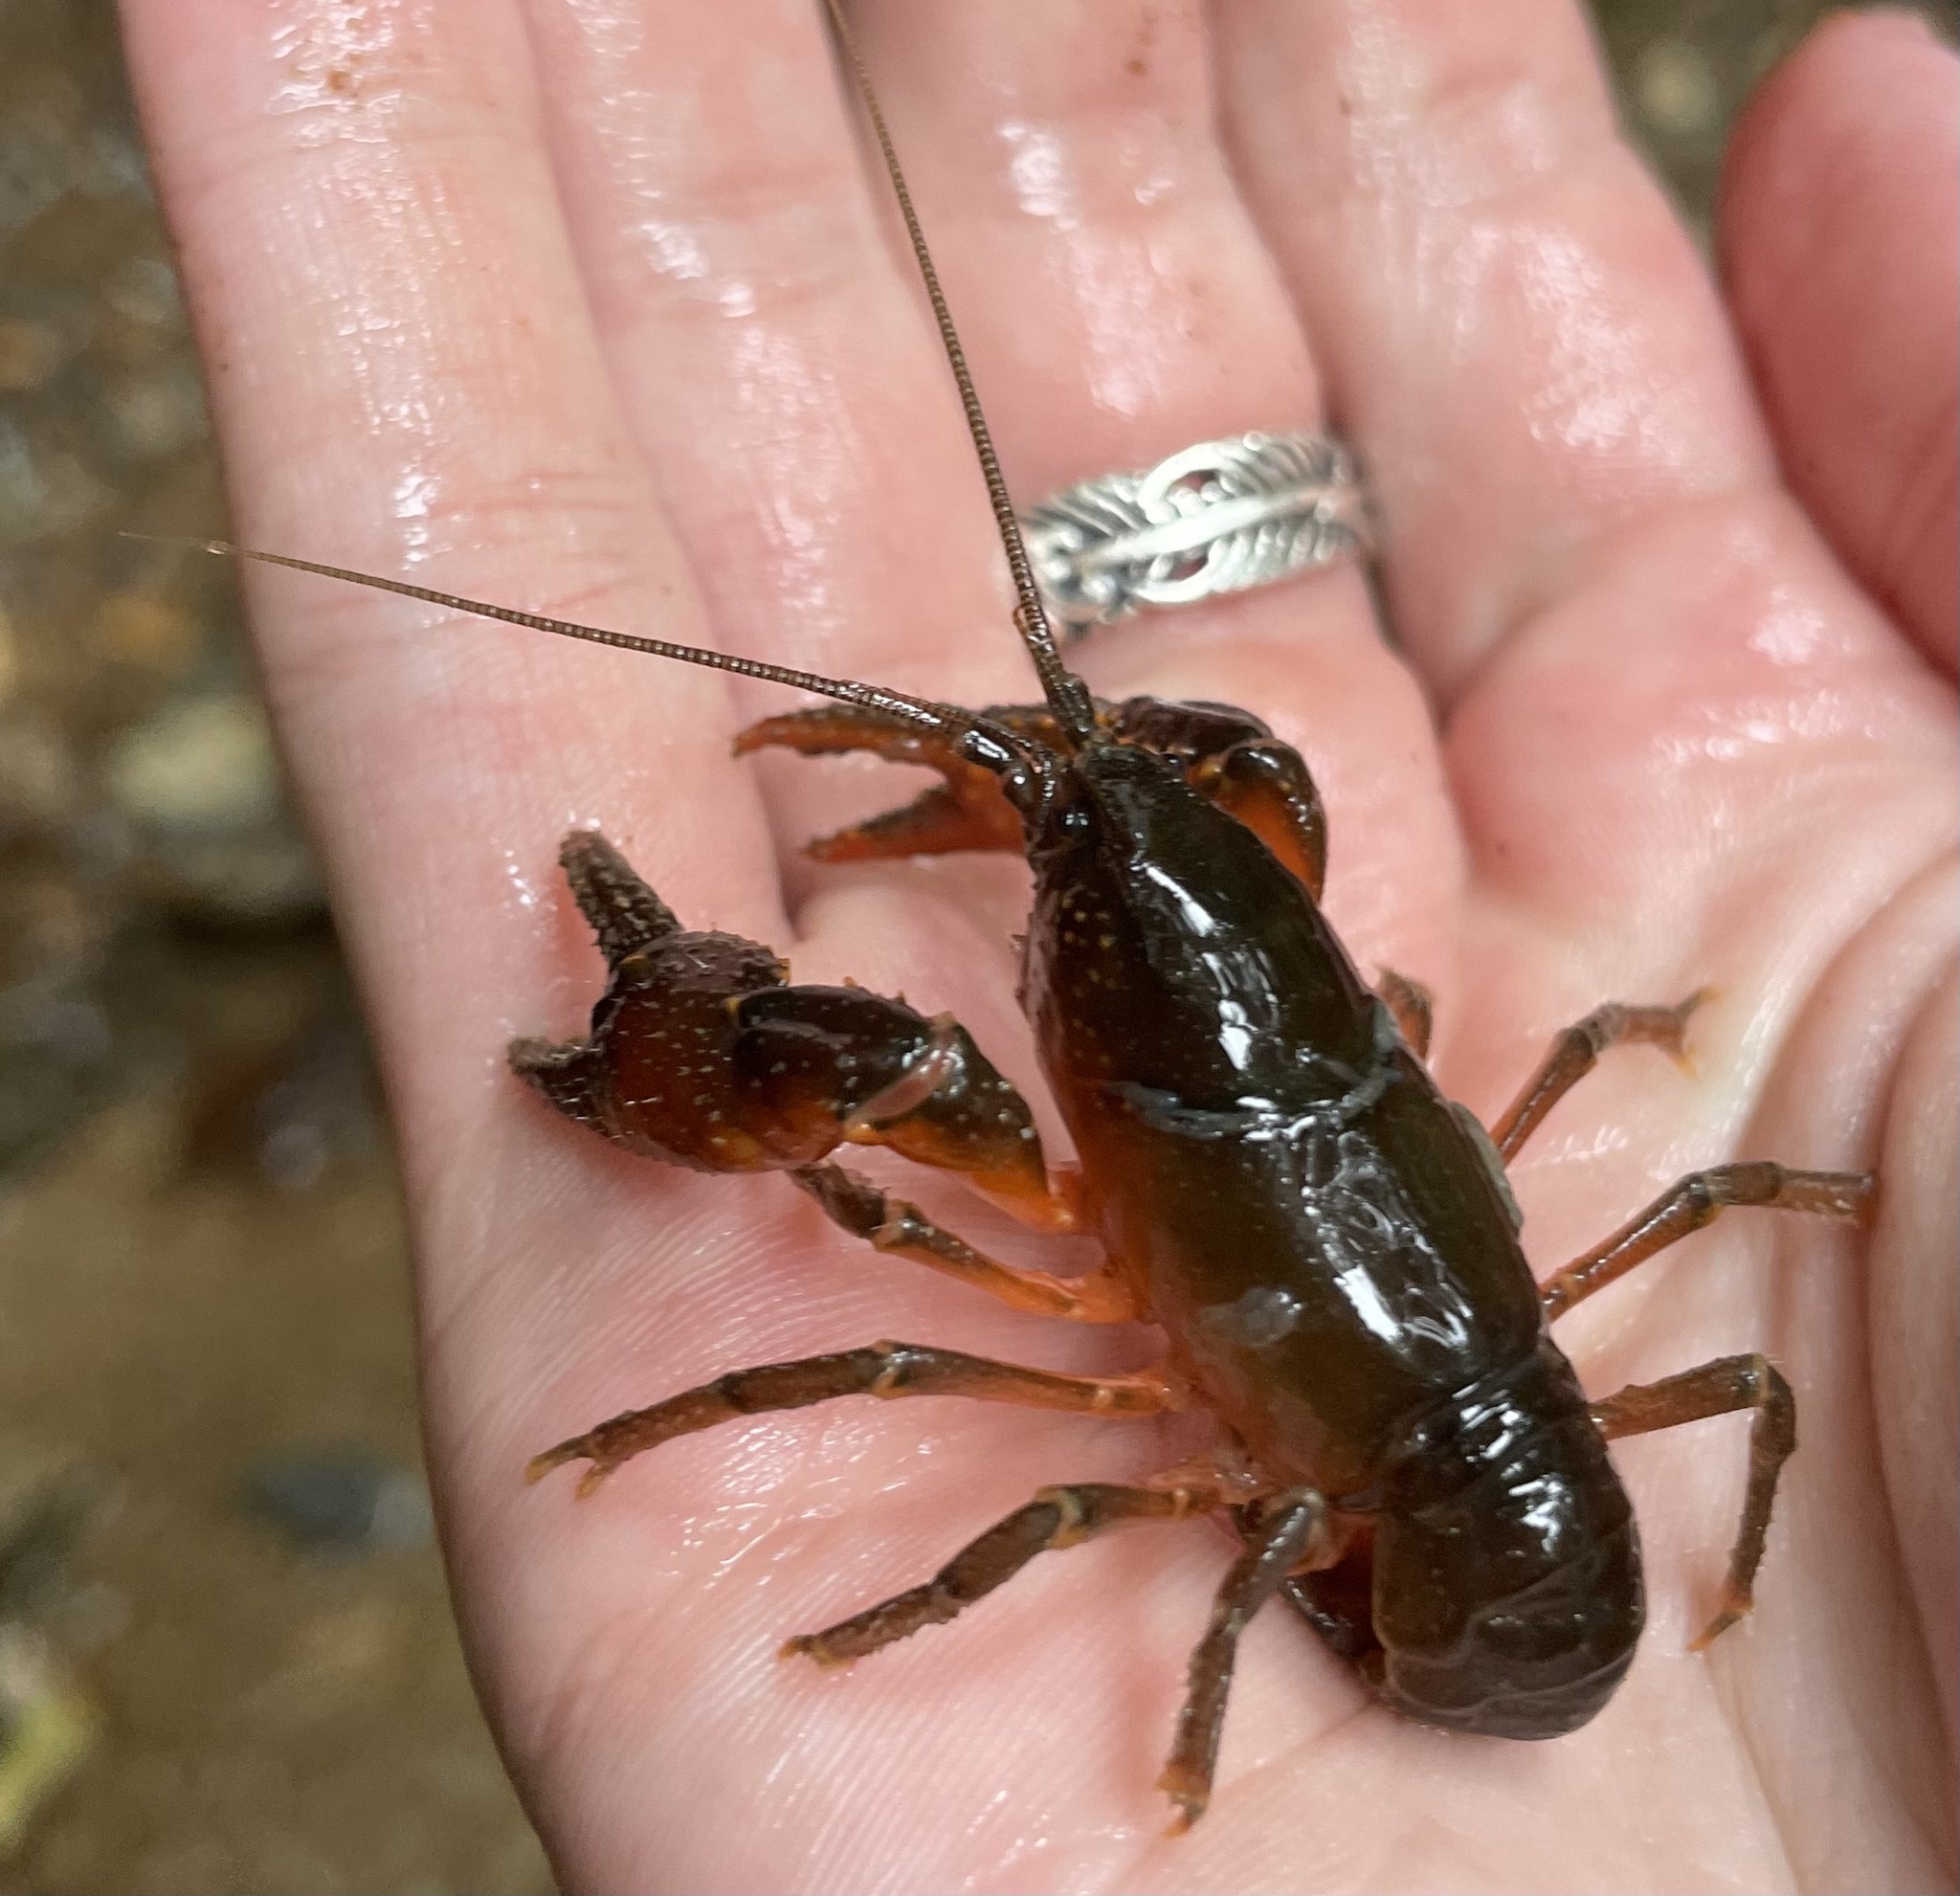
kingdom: Animalia
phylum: Arthropoda
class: Malacostraca
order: Decapoda
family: Cambaridae
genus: Cambarus
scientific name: Cambarus conasaugaensis
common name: Mountain crayfish
